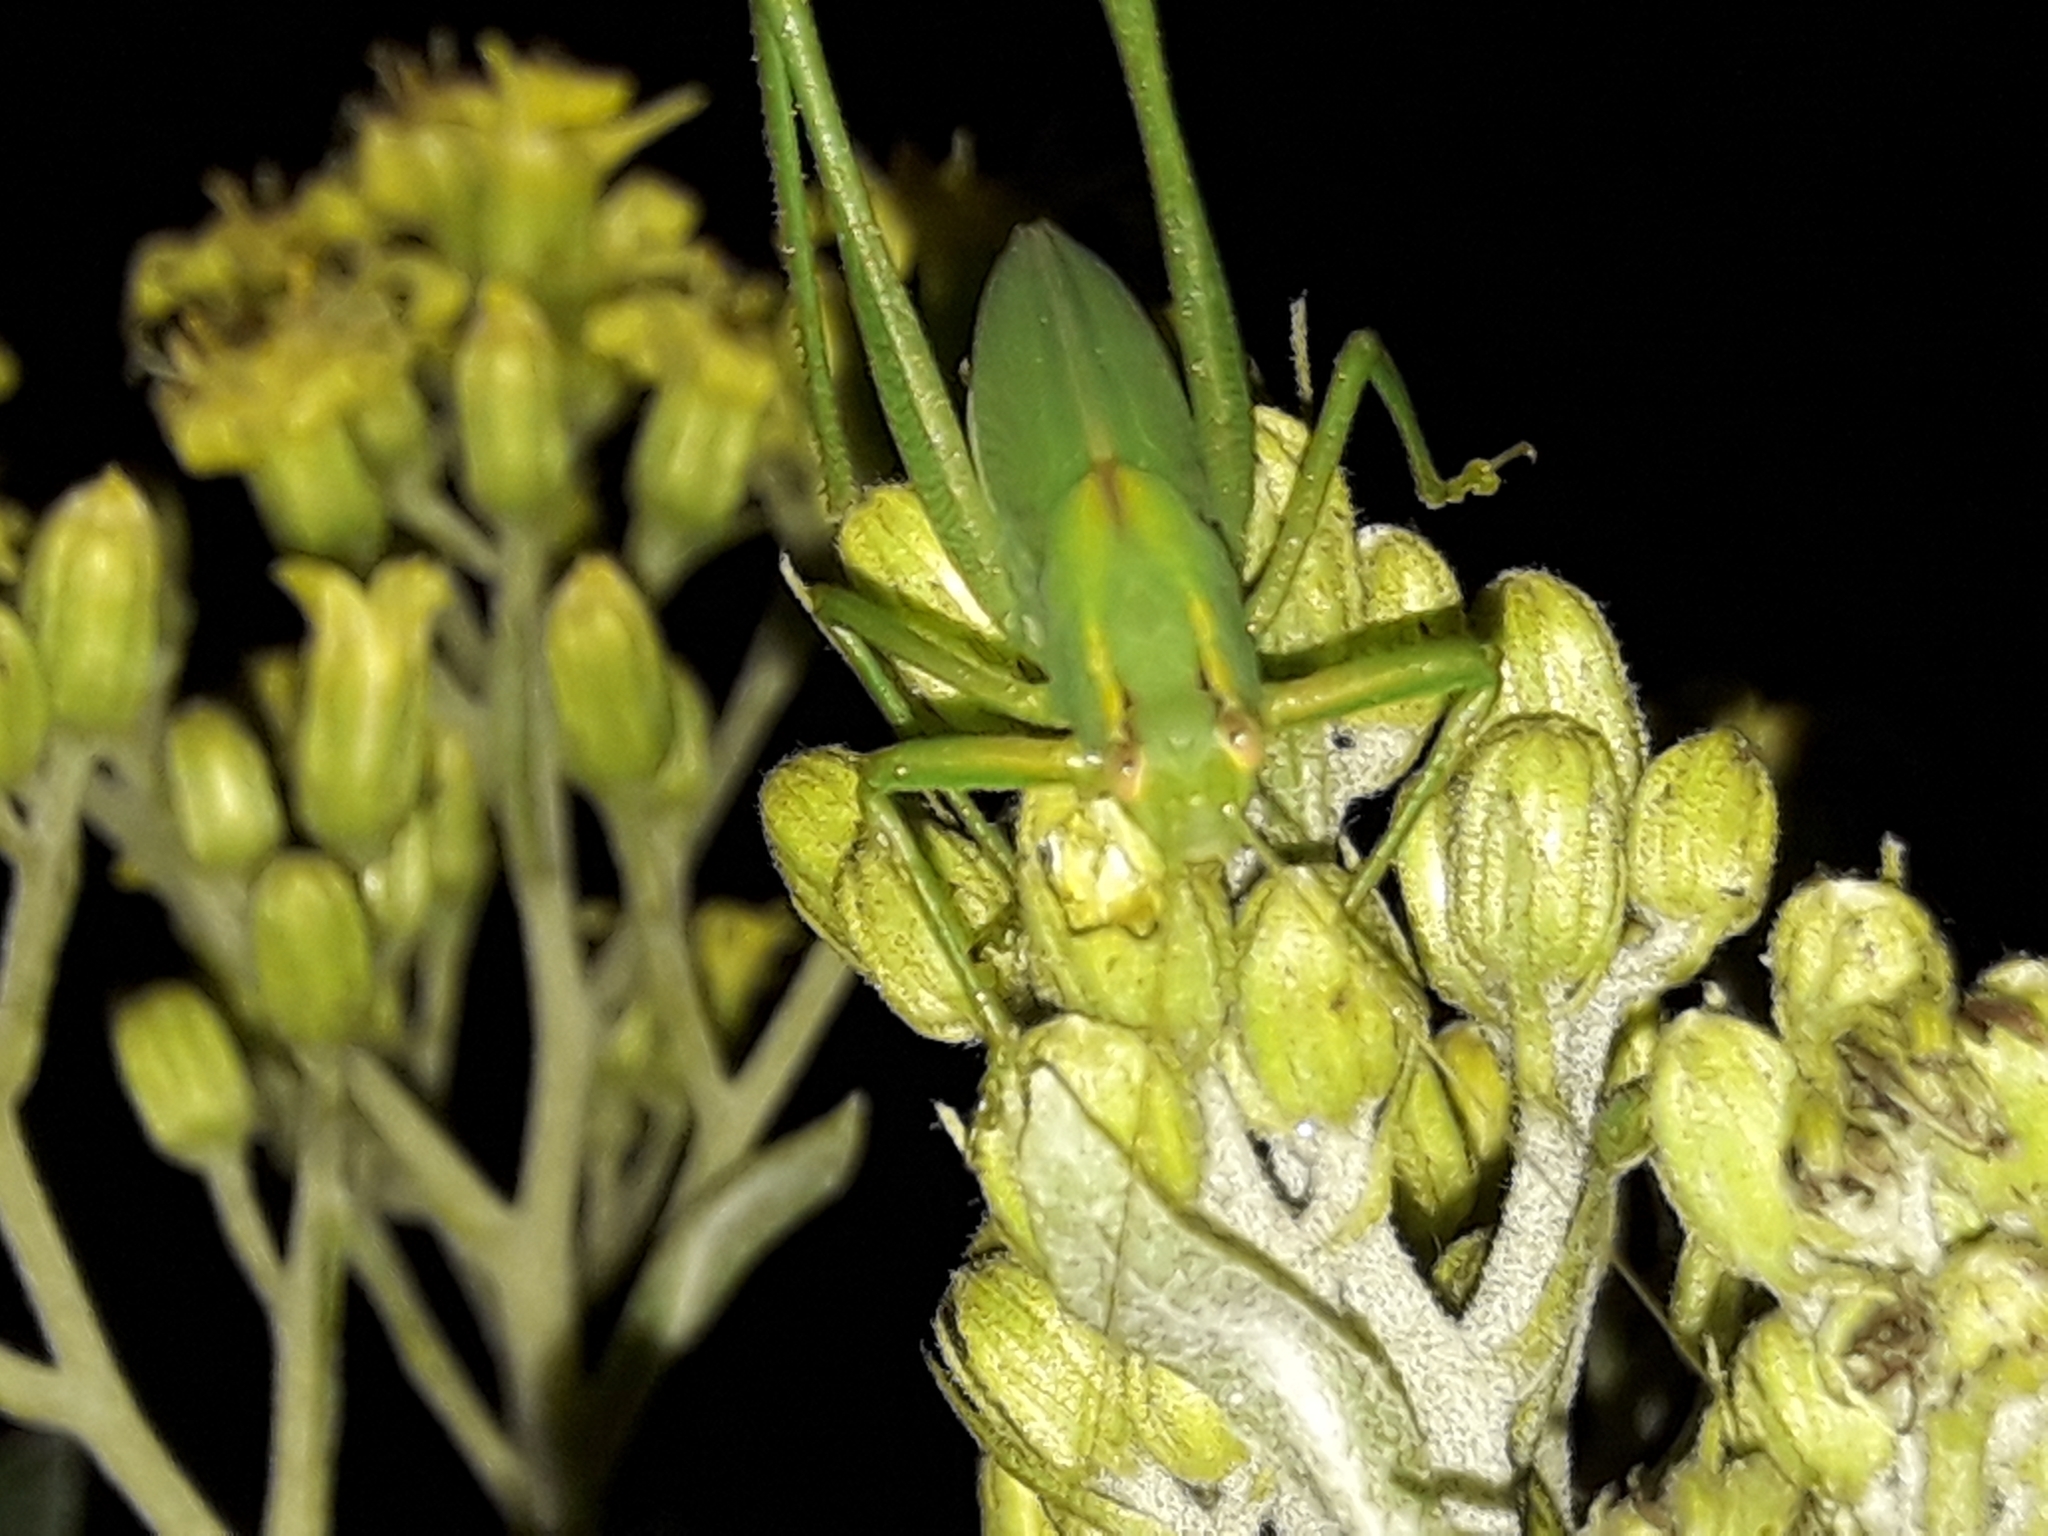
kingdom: Animalia
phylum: Arthropoda
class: Insecta
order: Orthoptera
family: Tettigoniidae
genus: Caedicia
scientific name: Caedicia simplex
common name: Common garden katydid
